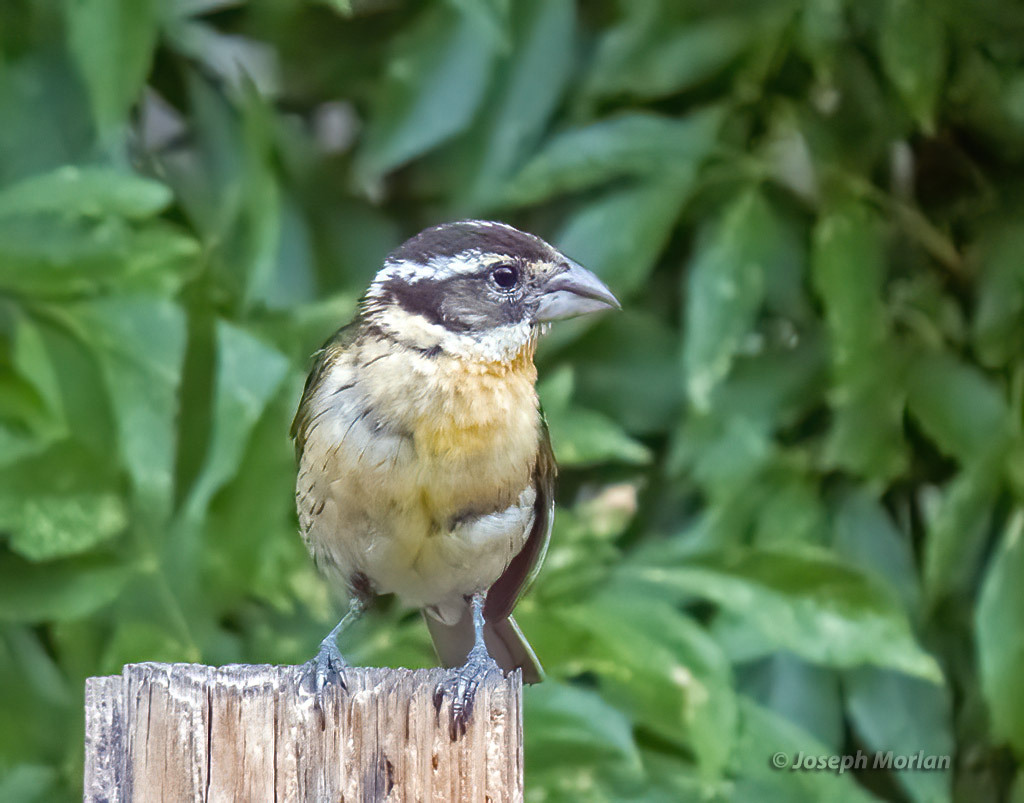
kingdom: Animalia
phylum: Chordata
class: Aves
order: Passeriformes
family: Cardinalidae
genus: Pheucticus
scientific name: Pheucticus melanocephalus
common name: Black-headed grosbeak
